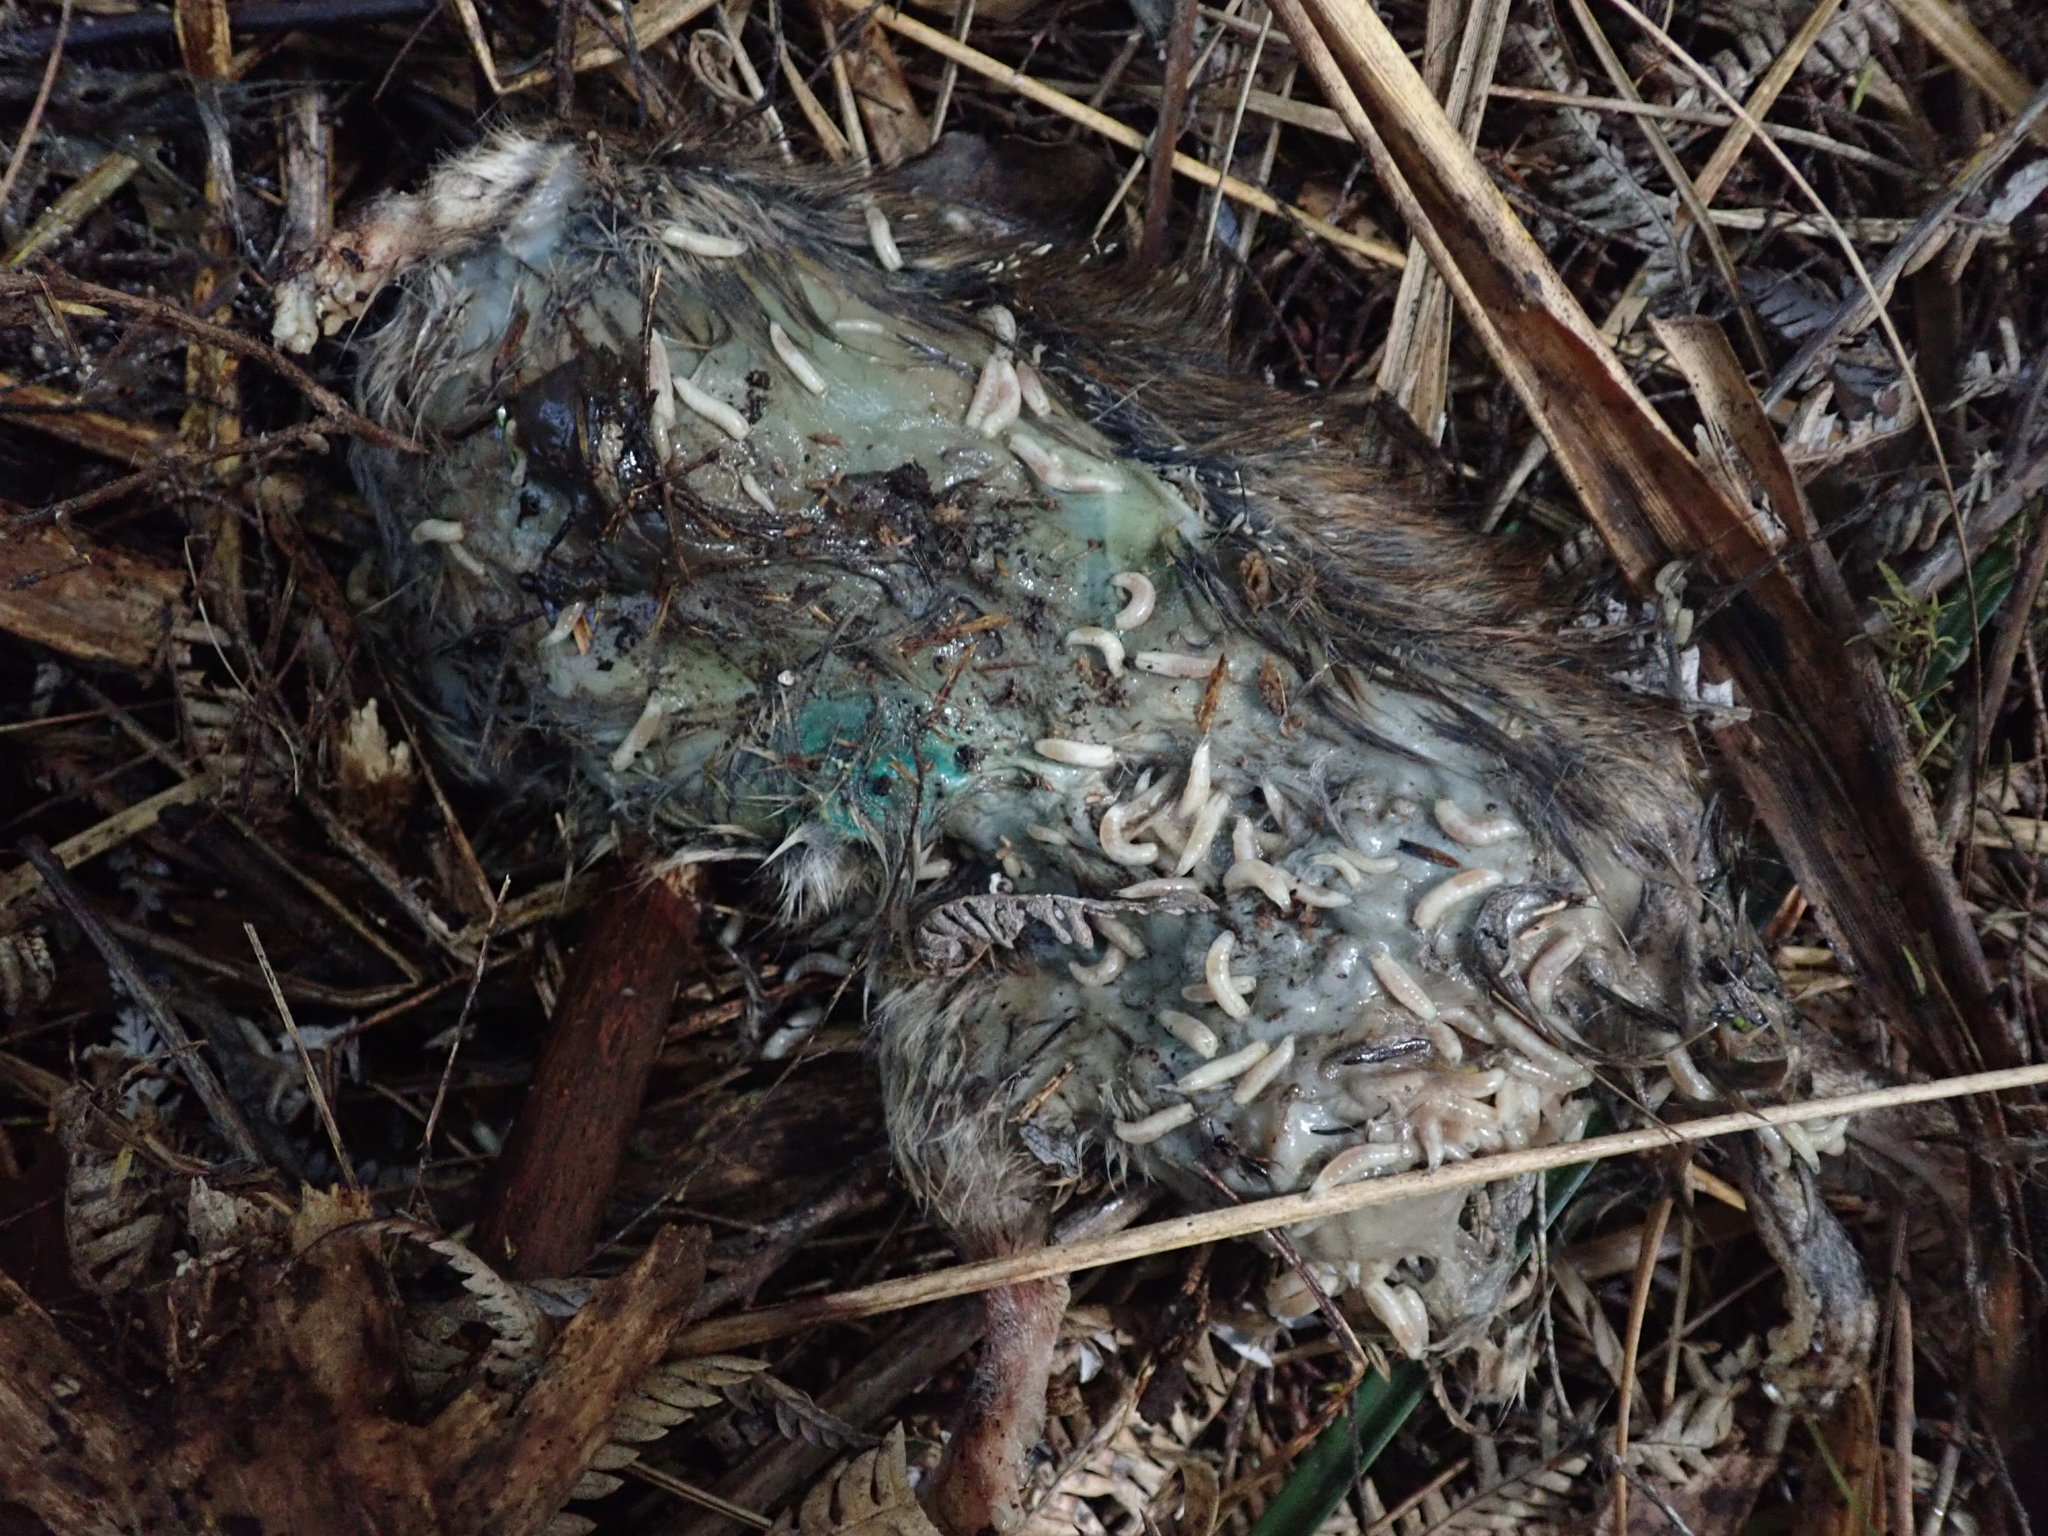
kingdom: Animalia
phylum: Chordata
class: Mammalia
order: Rodentia
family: Muridae
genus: Rattus
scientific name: Rattus norvegicus
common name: Brown rat
